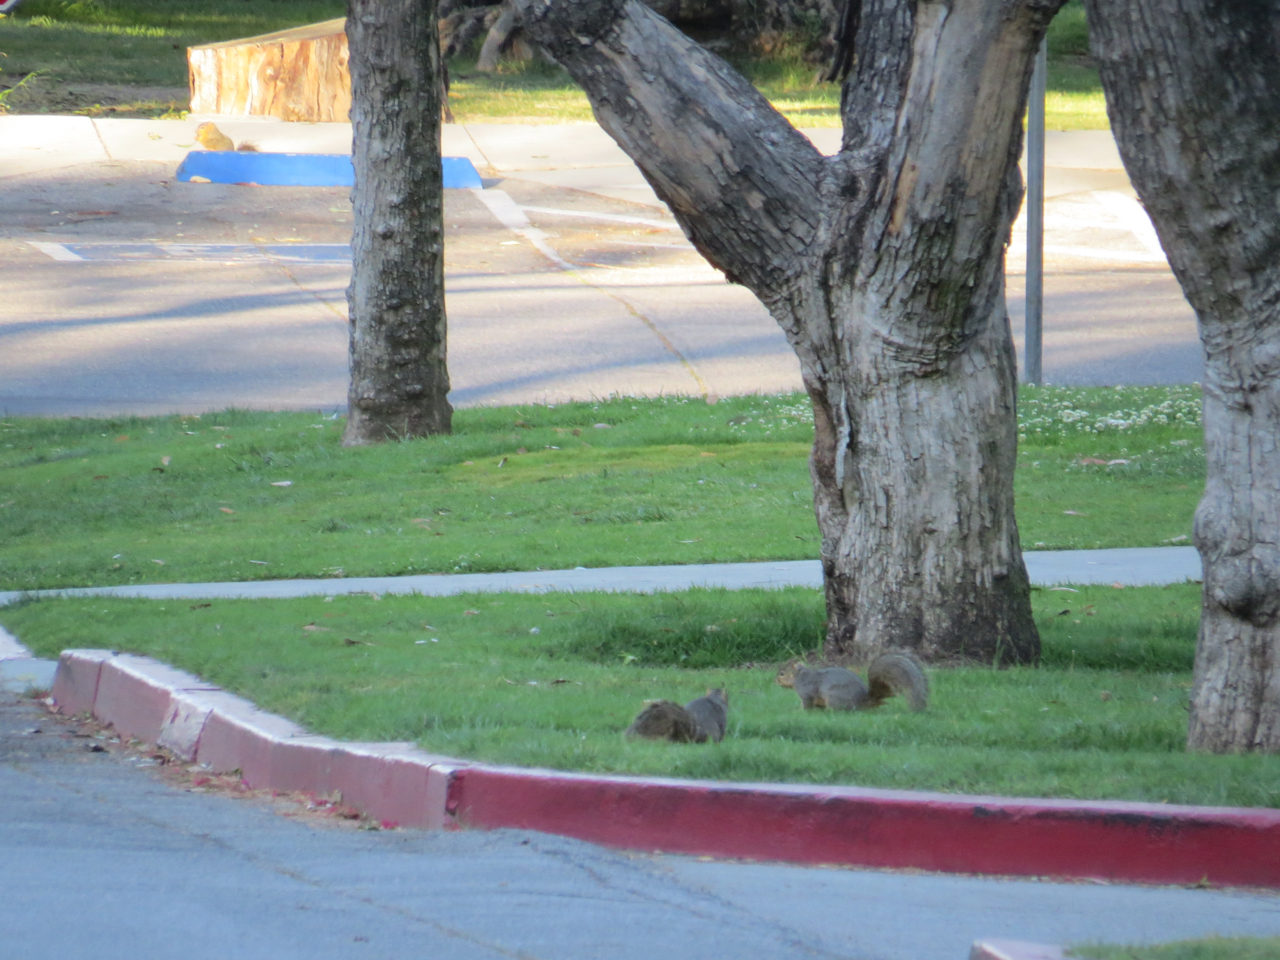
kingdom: Animalia
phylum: Chordata
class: Mammalia
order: Rodentia
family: Sciuridae
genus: Sciurus
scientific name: Sciurus niger
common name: Fox squirrel
